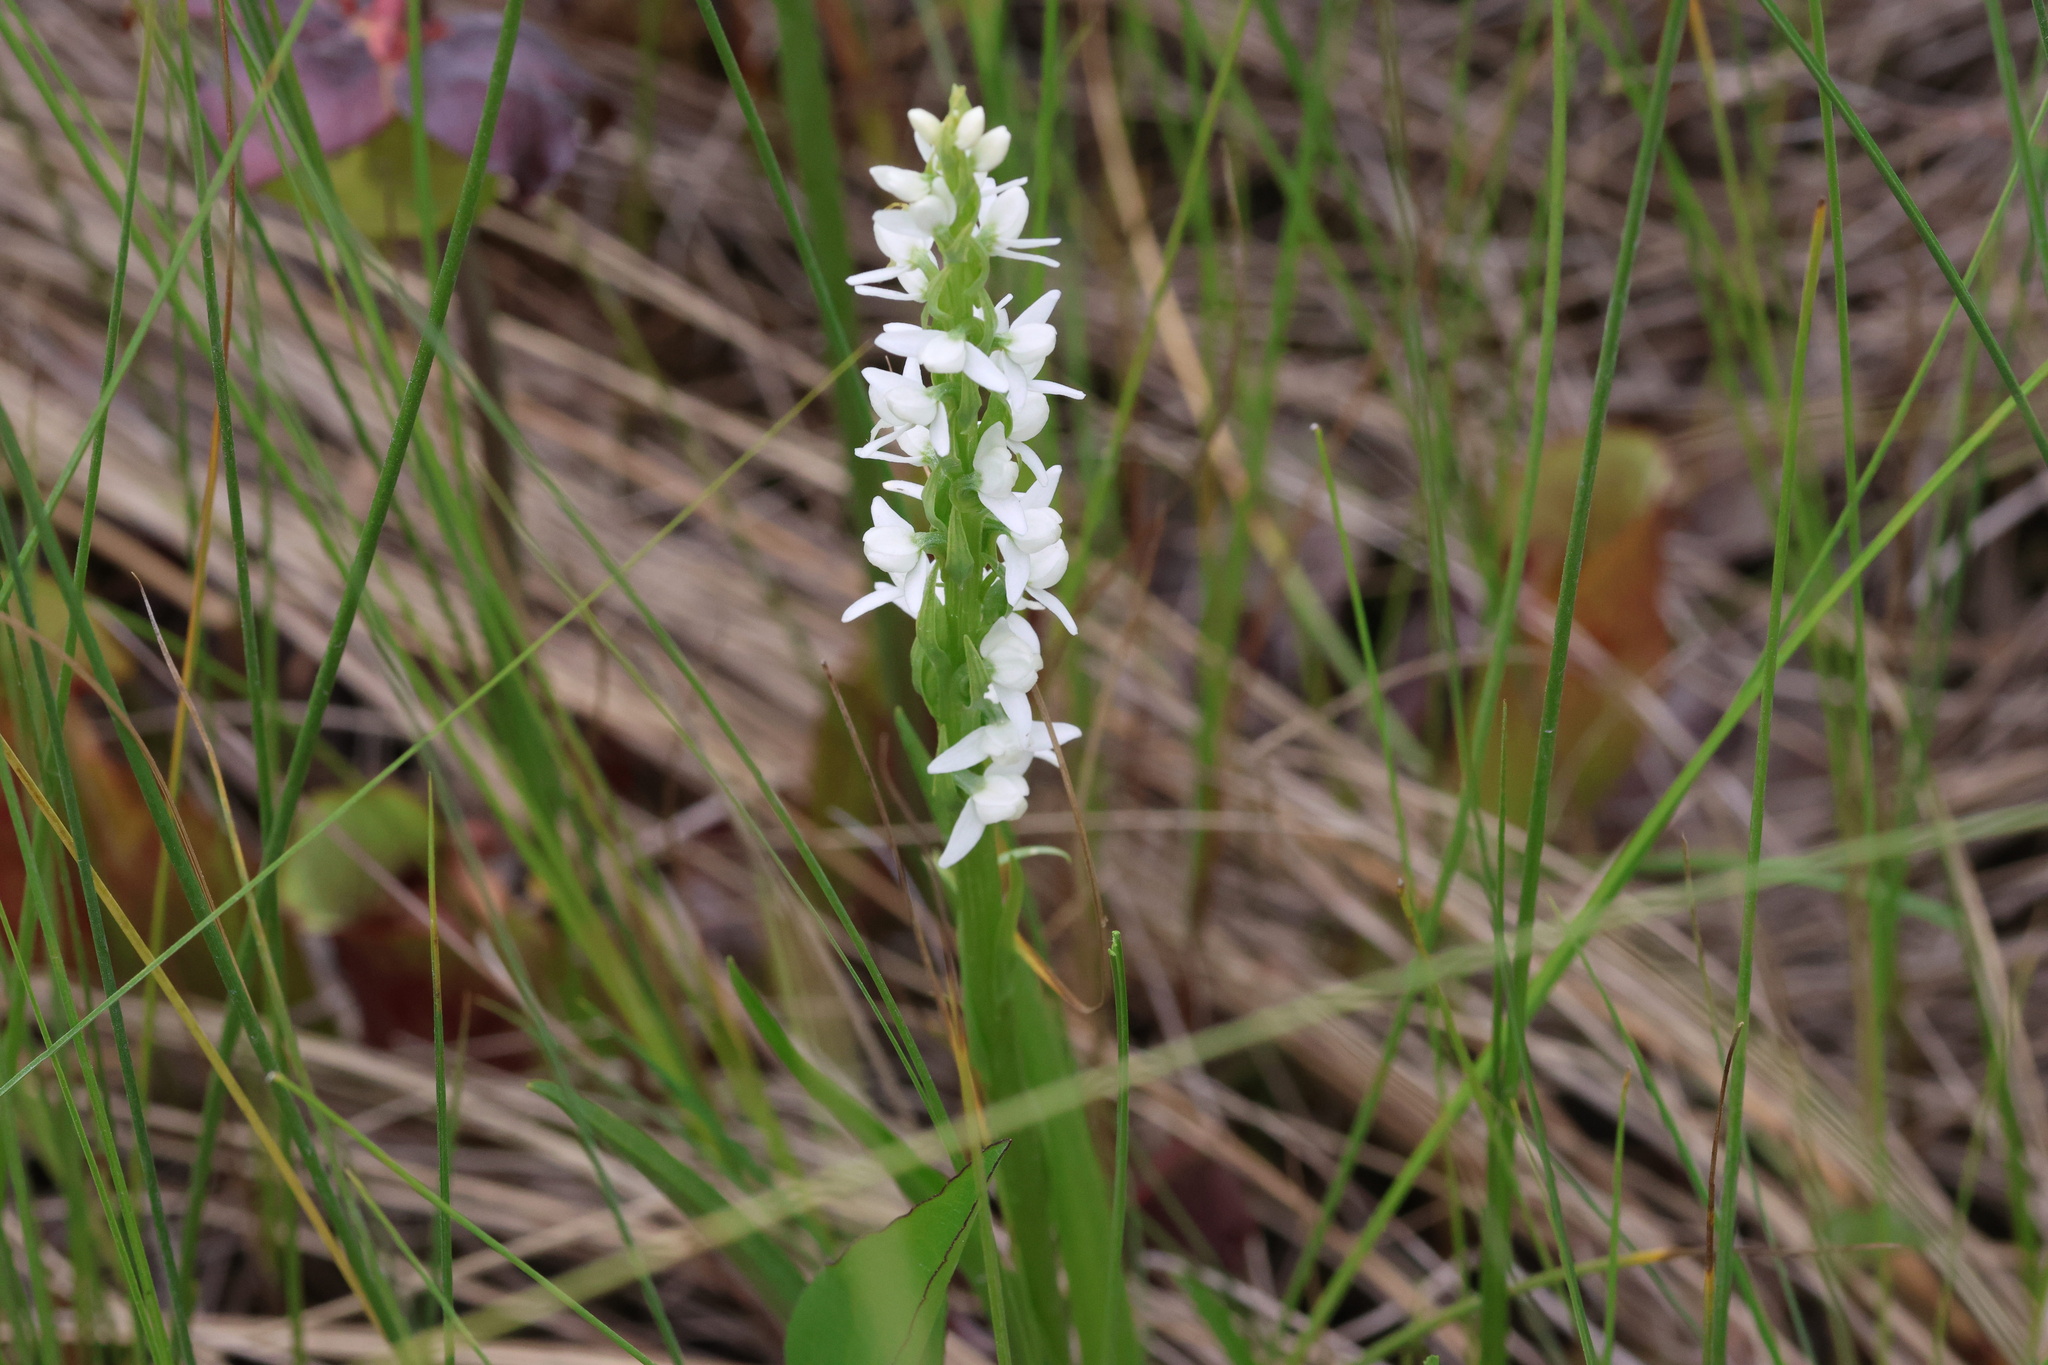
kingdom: Plantae
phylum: Tracheophyta
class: Liliopsida
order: Asparagales
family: Orchidaceae
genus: Platanthera
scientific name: Platanthera dilatata
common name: Bog candles
